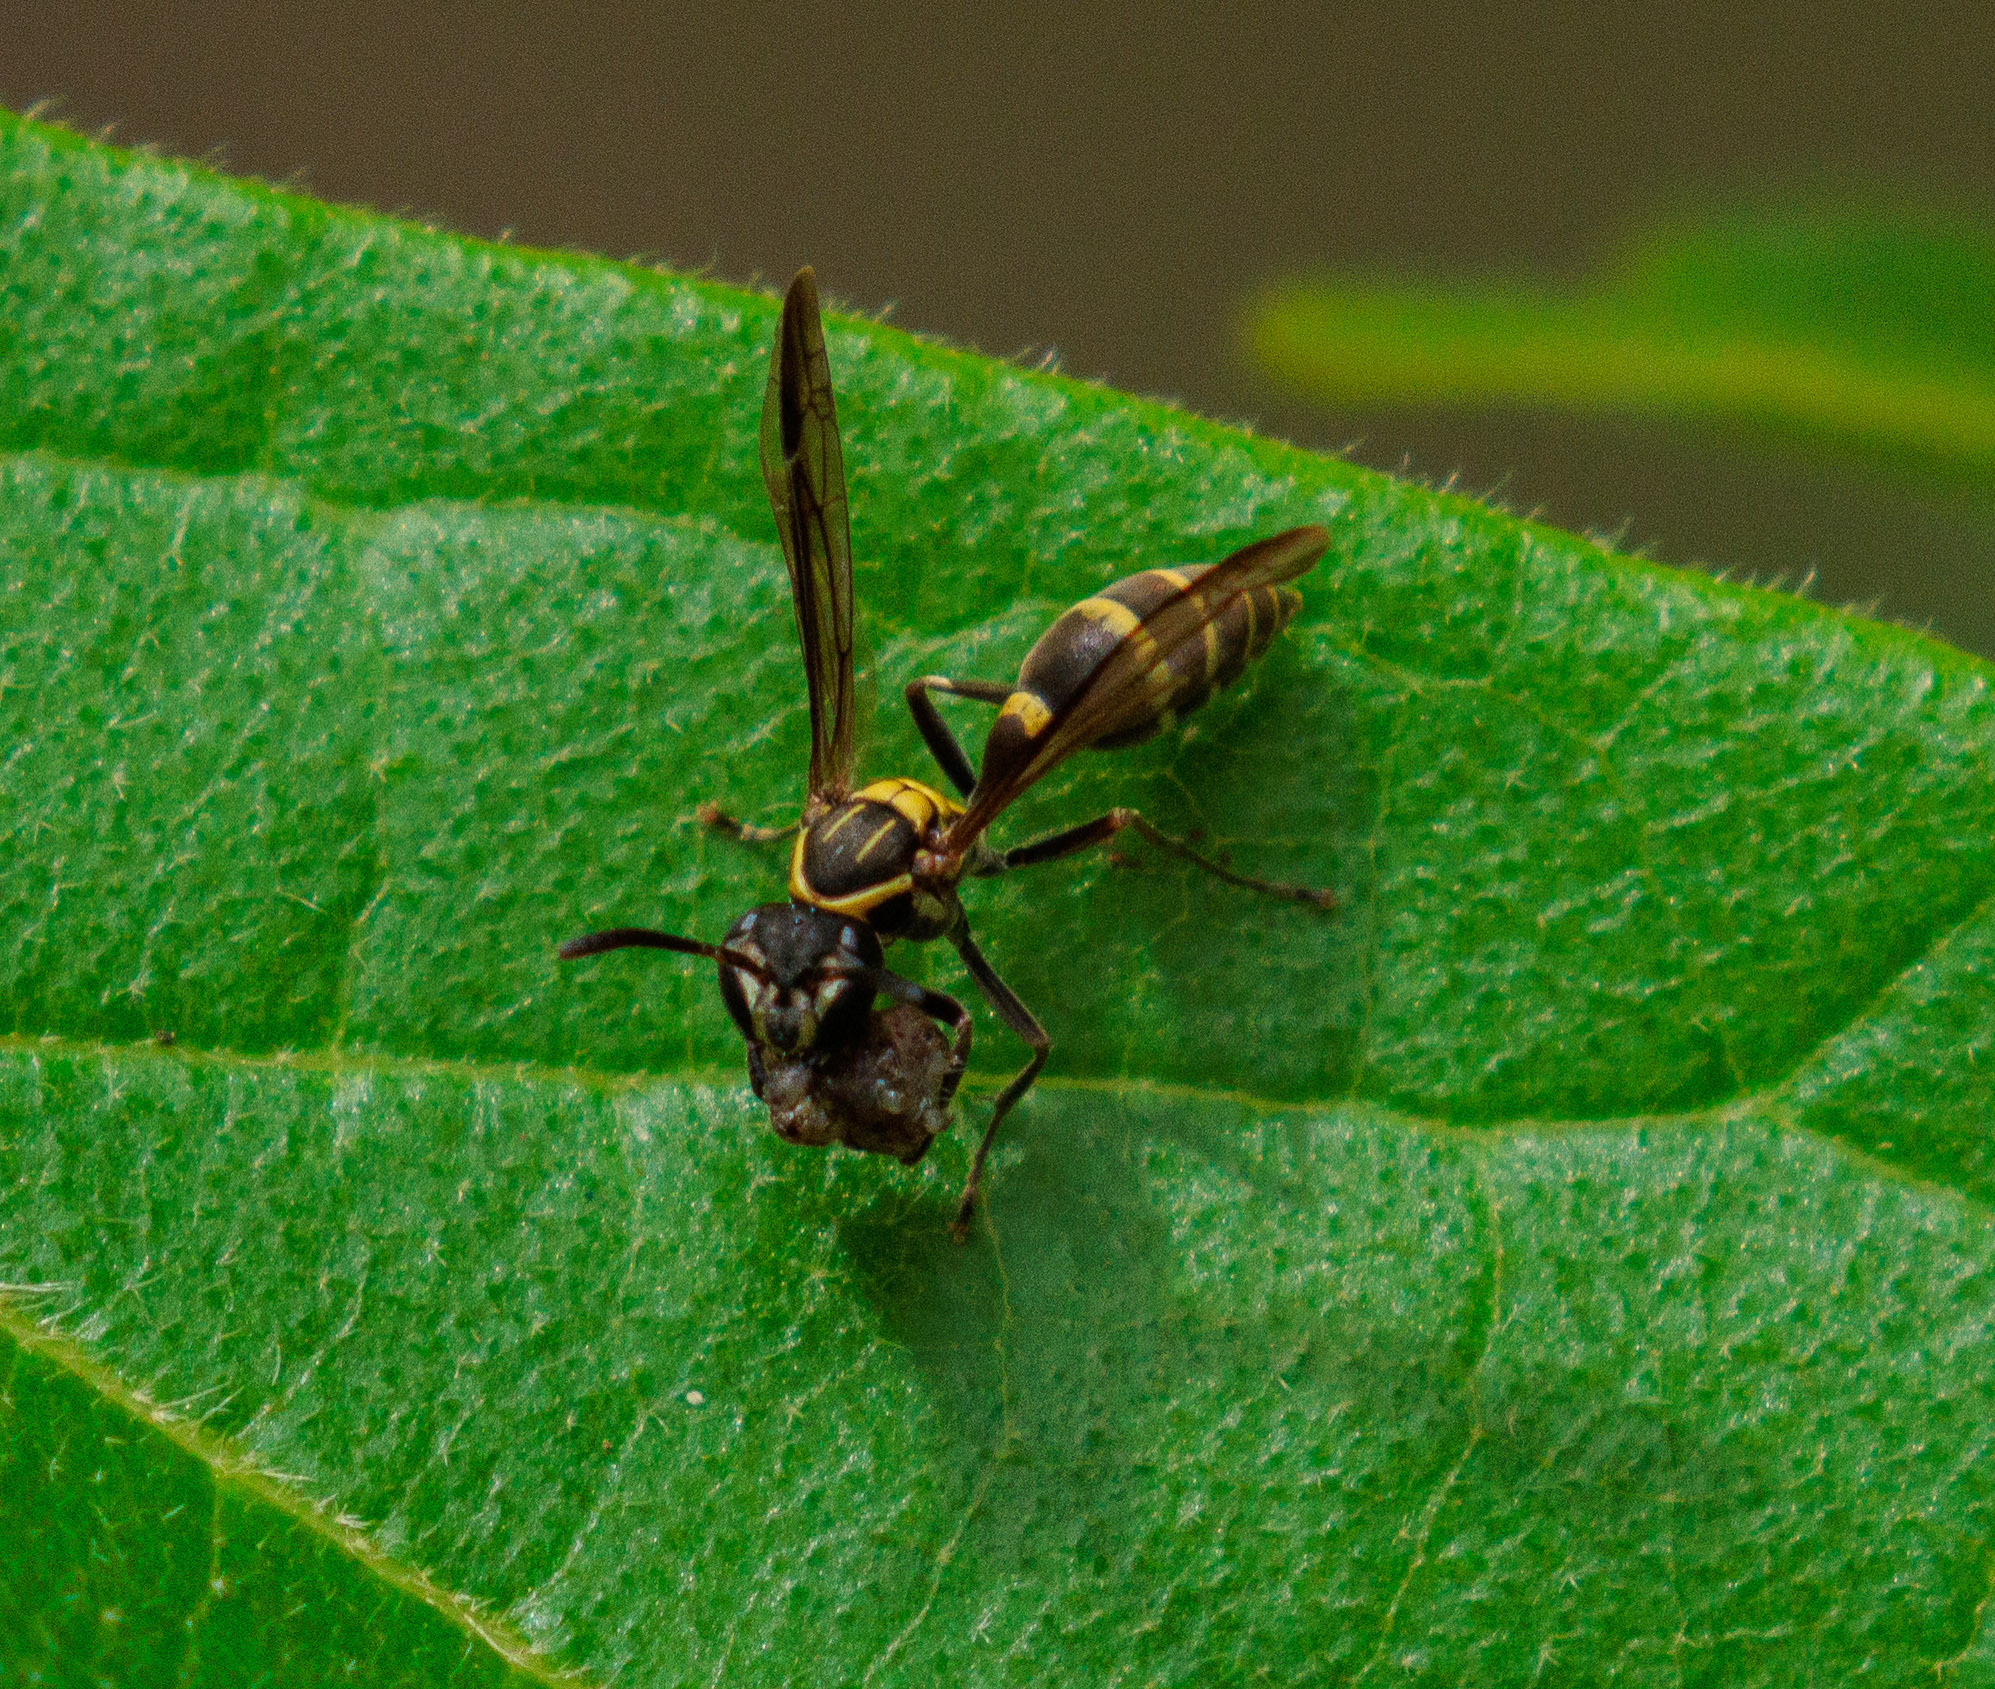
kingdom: Animalia
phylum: Arthropoda
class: Insecta
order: Hymenoptera
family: Eumenidae
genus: Polybia
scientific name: Polybia occidentalis
